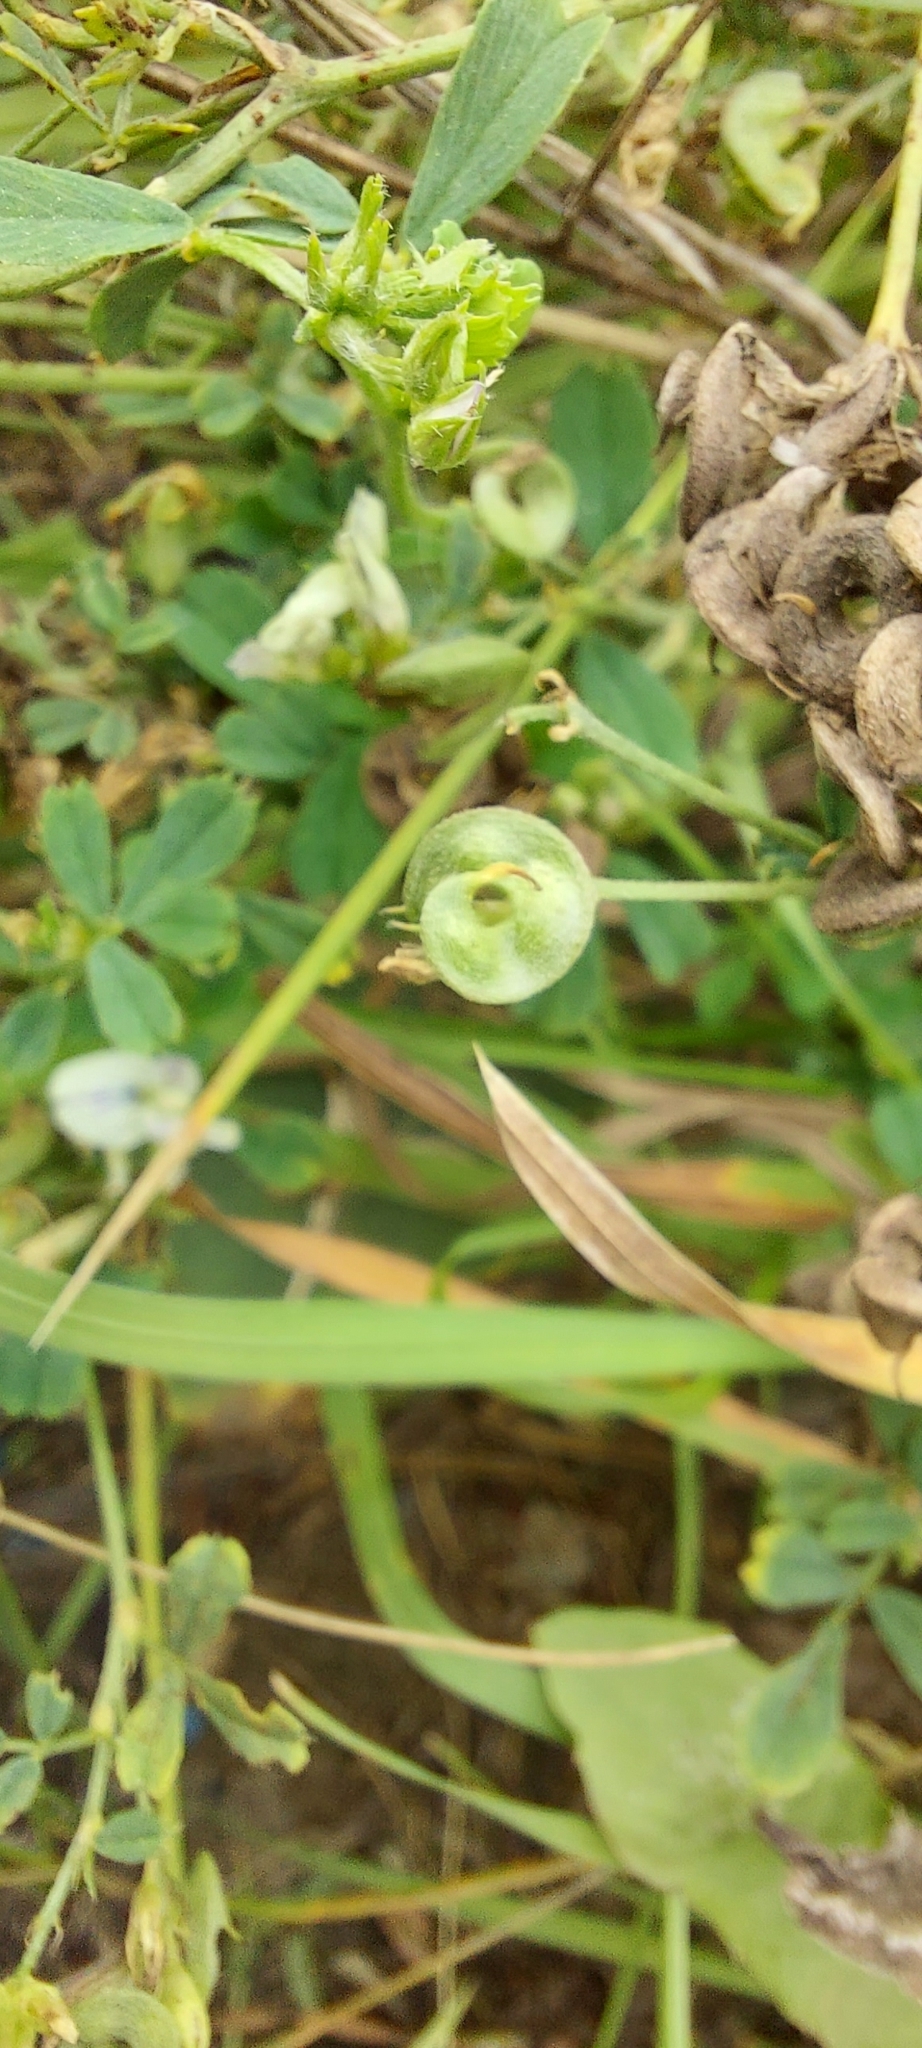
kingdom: Plantae
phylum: Tracheophyta
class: Magnoliopsida
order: Fabales
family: Fabaceae
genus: Medicago
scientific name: Medicago varia
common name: Sand lucerne
